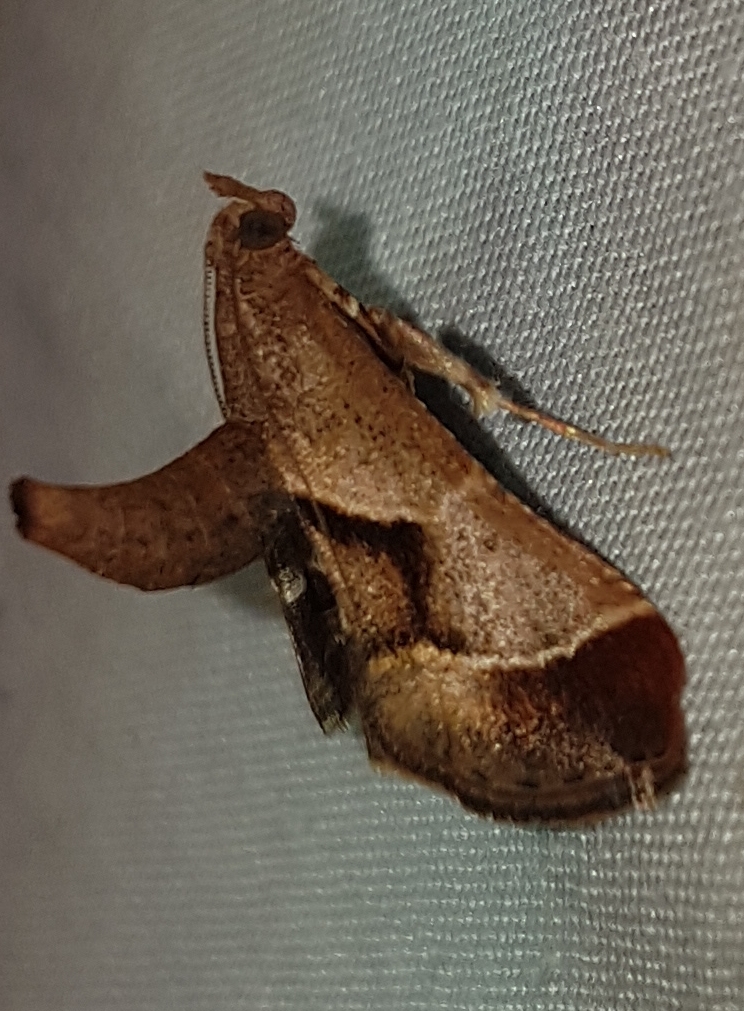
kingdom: Animalia
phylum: Arthropoda
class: Insecta
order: Lepidoptera
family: Pyralidae
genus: Gauna
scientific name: Gauna aegusalis
